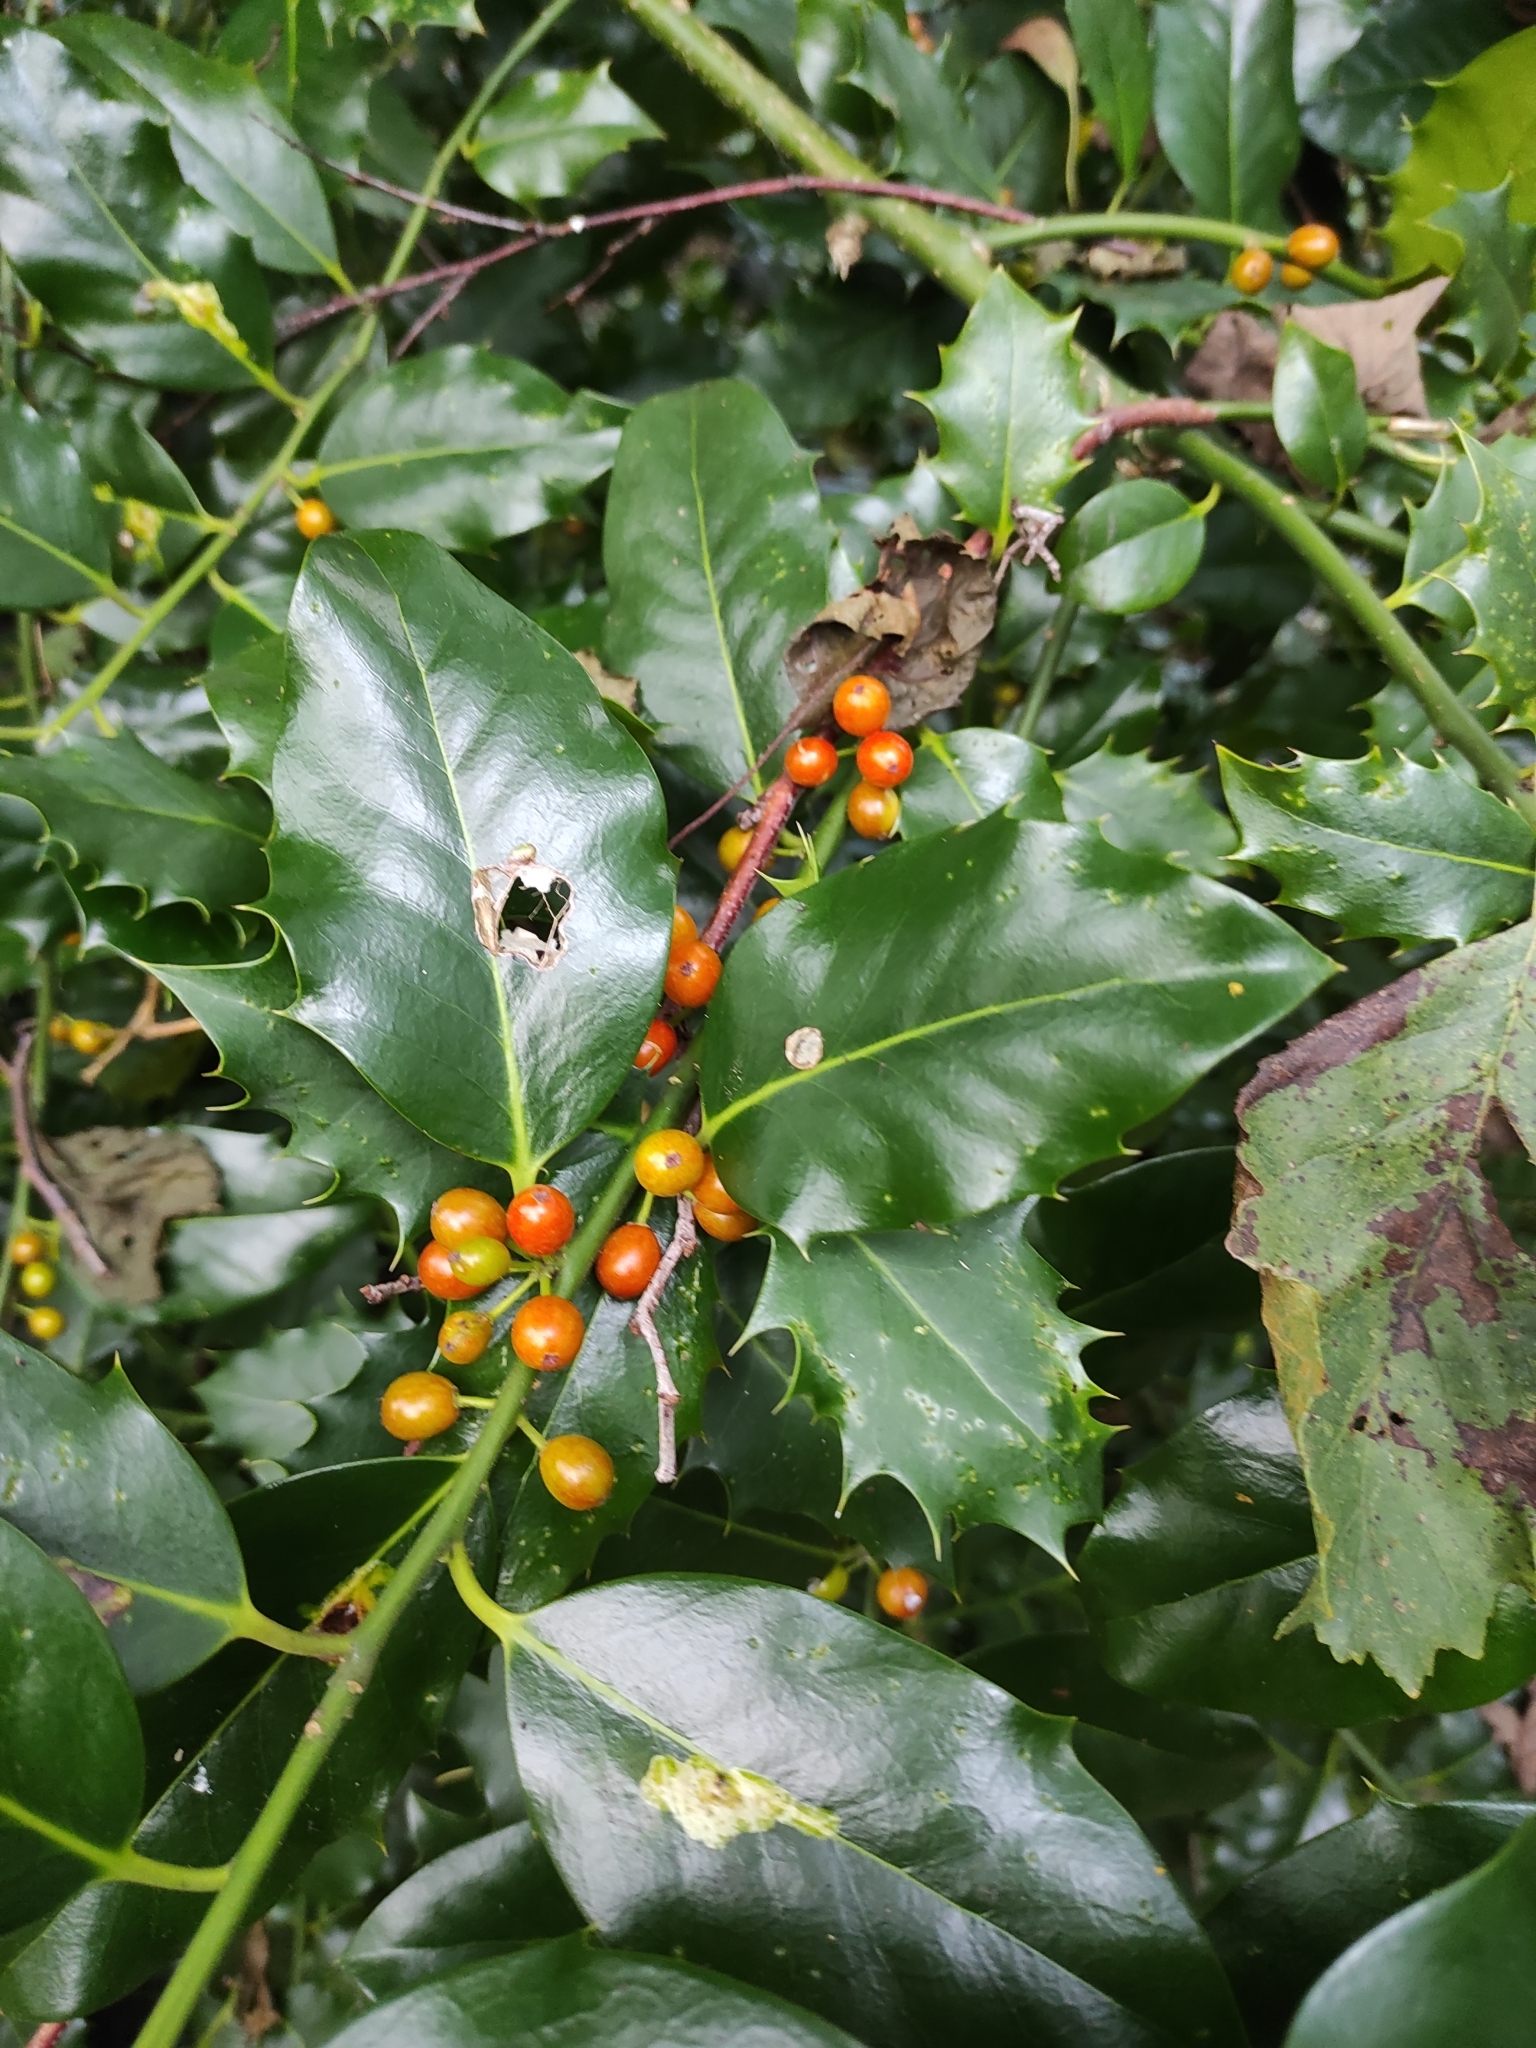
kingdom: Plantae
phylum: Tracheophyta
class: Magnoliopsida
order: Aquifoliales
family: Aquifoliaceae
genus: Ilex
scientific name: Ilex aquifolium
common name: English holly
